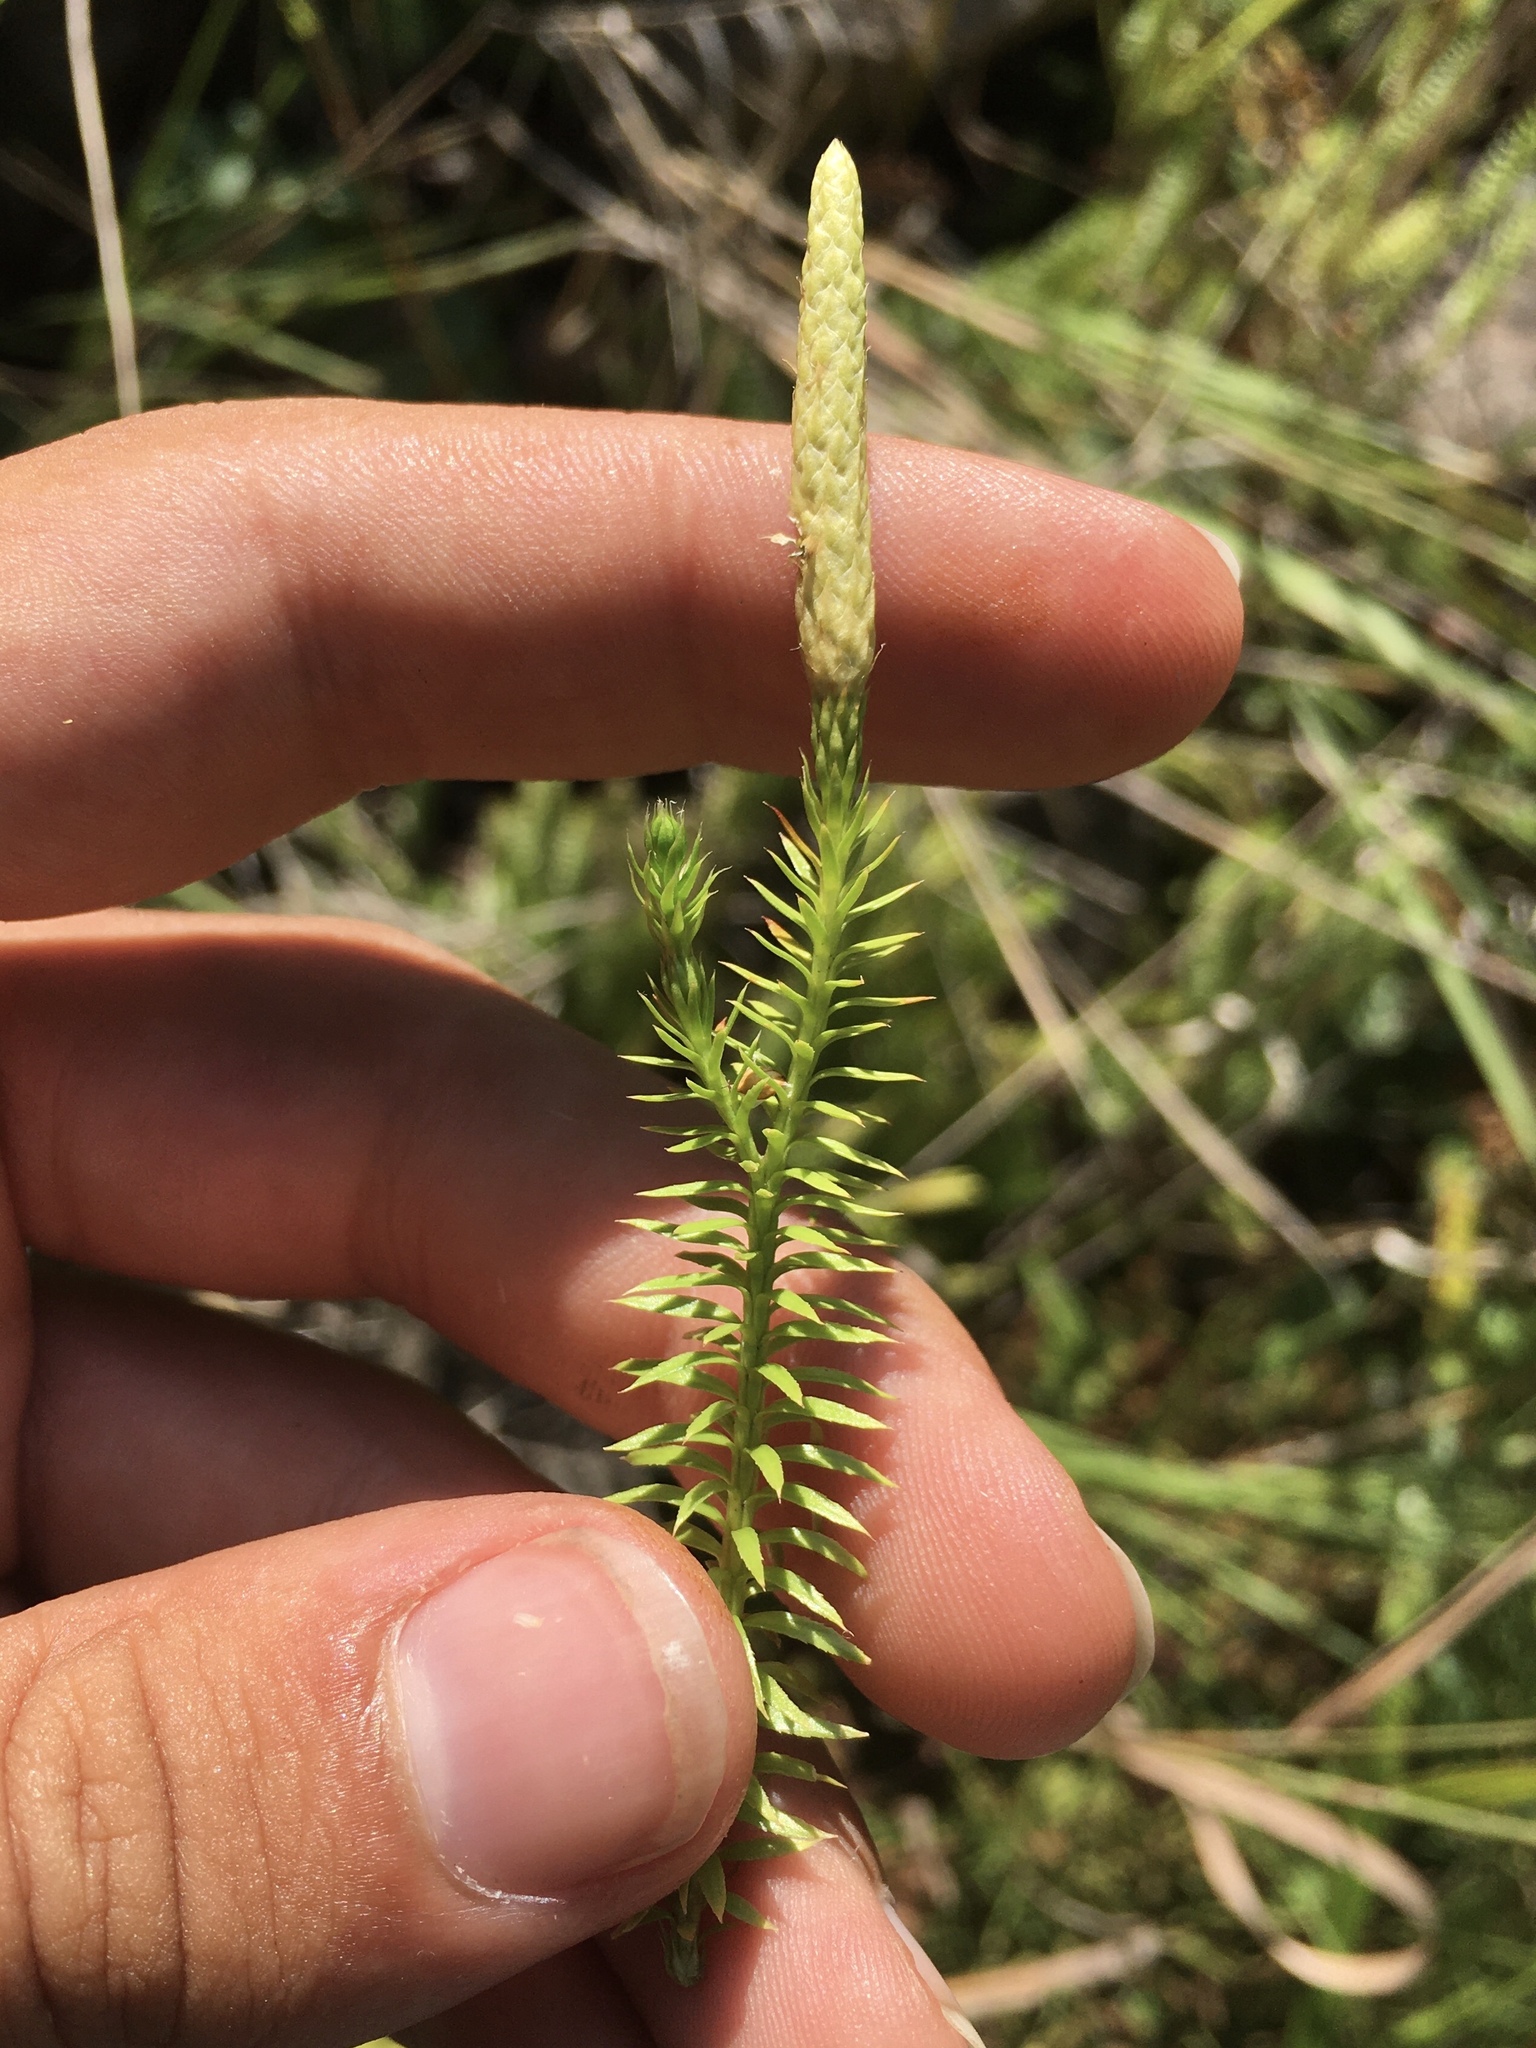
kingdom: Plantae
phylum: Tracheophyta
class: Lycopodiopsida
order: Lycopodiales
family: Lycopodiaceae
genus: Spinulum
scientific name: Spinulum annotinum
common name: Interrupted club-moss
